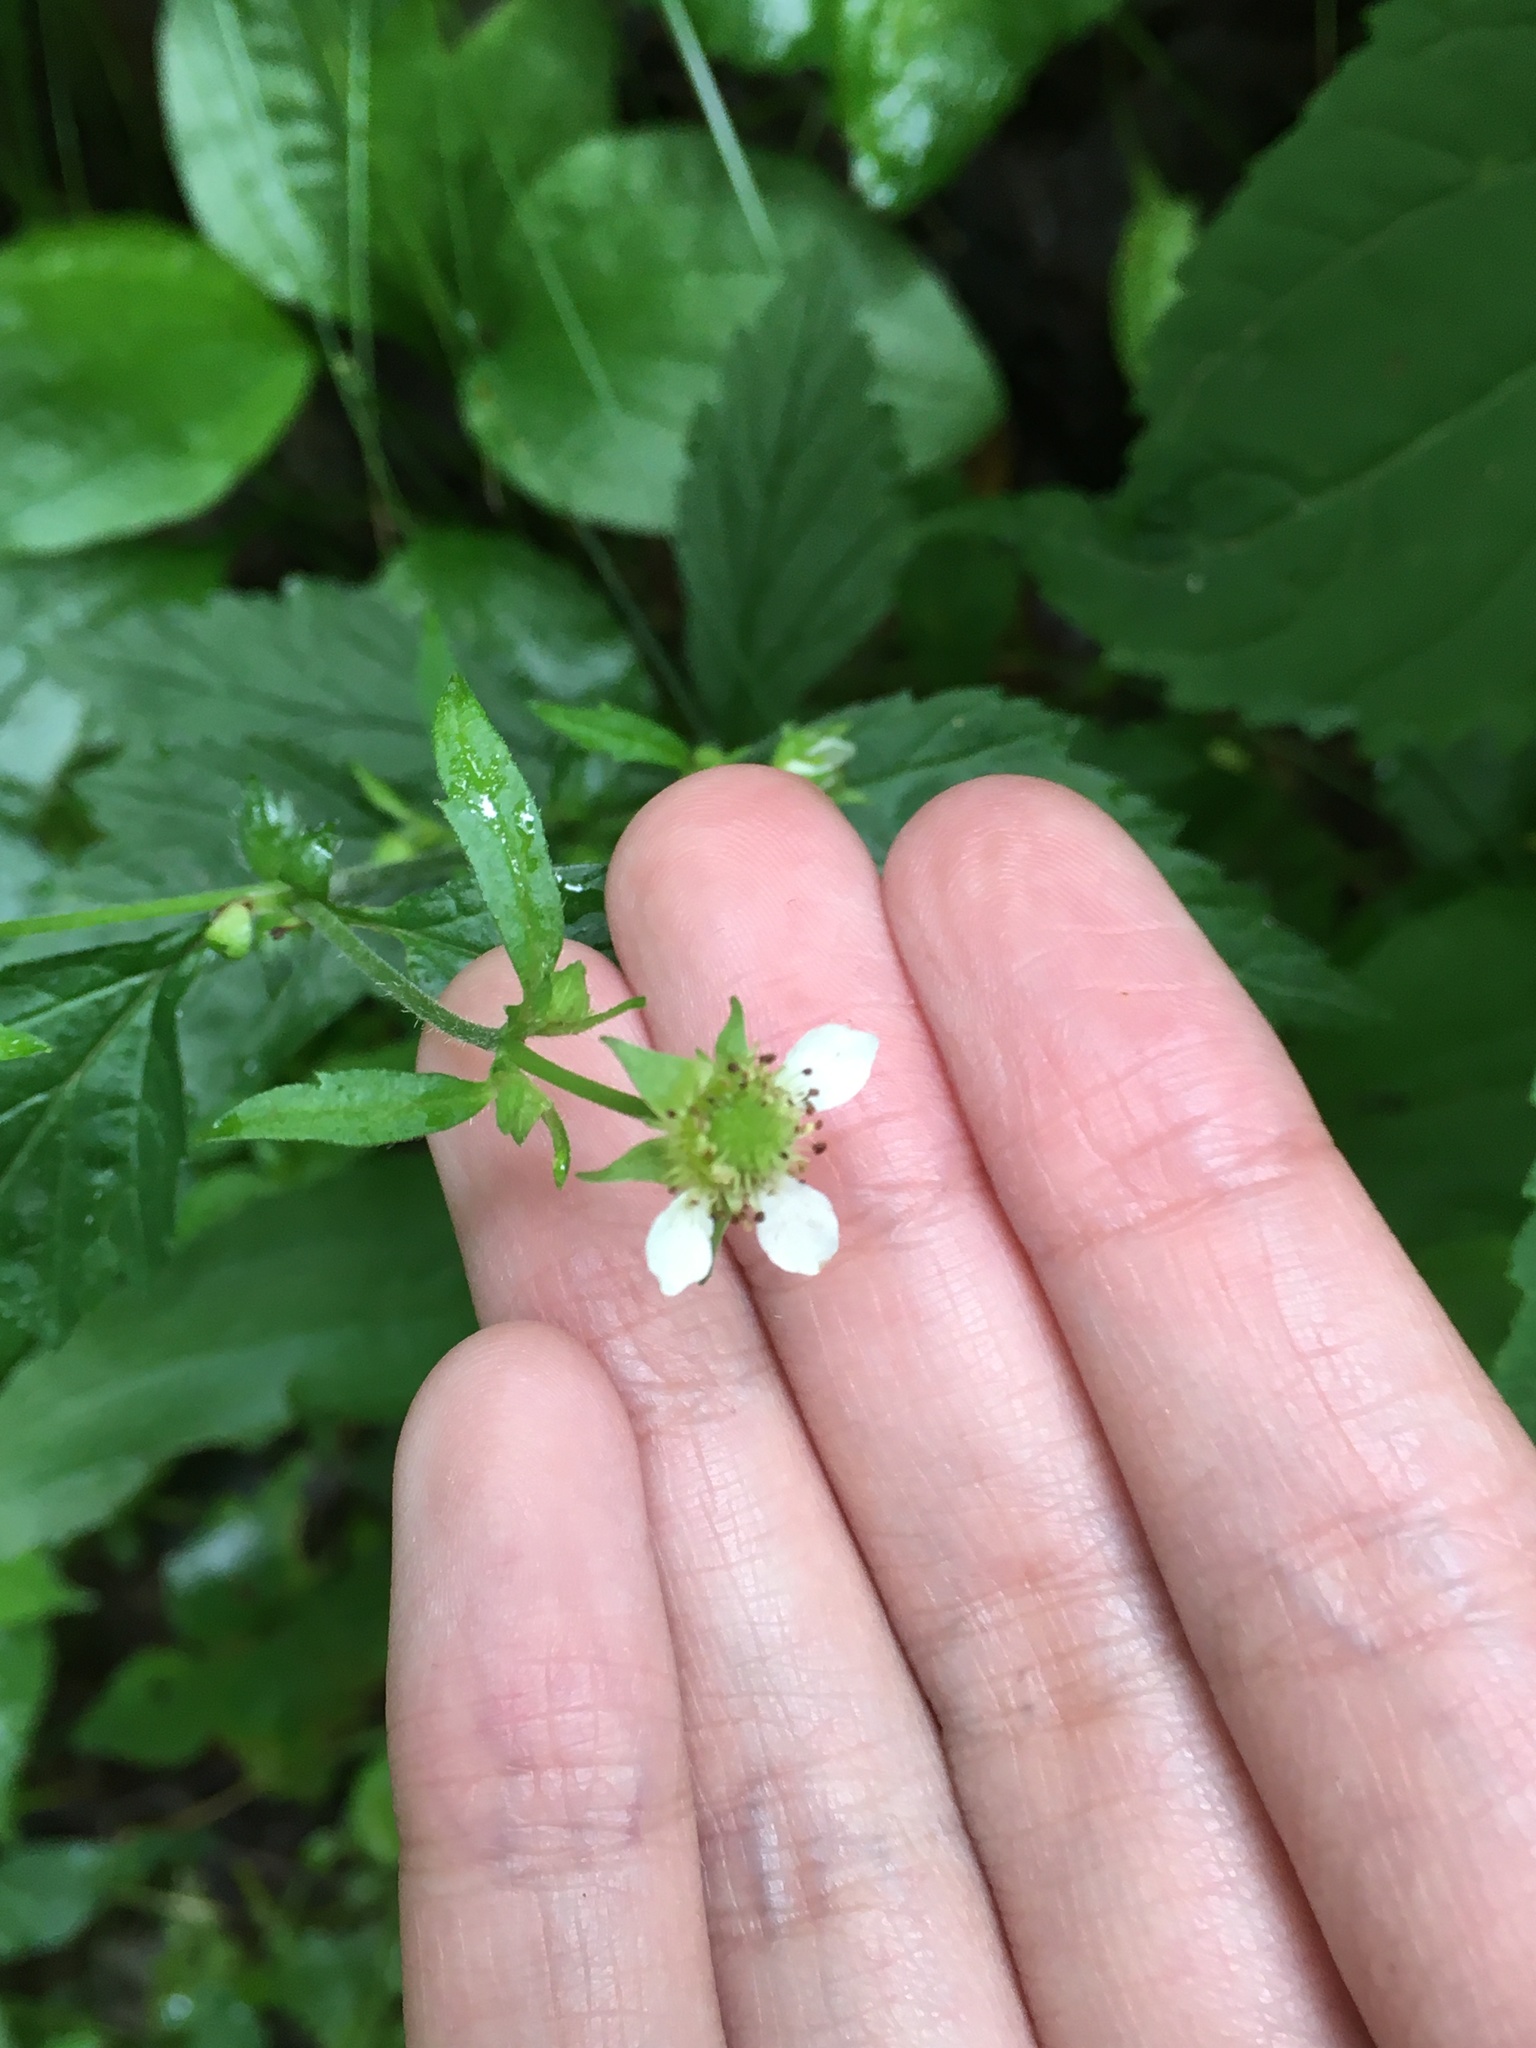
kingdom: Plantae
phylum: Tracheophyta
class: Magnoliopsida
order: Rosales
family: Rosaceae
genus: Geum
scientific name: Geum canadense
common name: White avens
